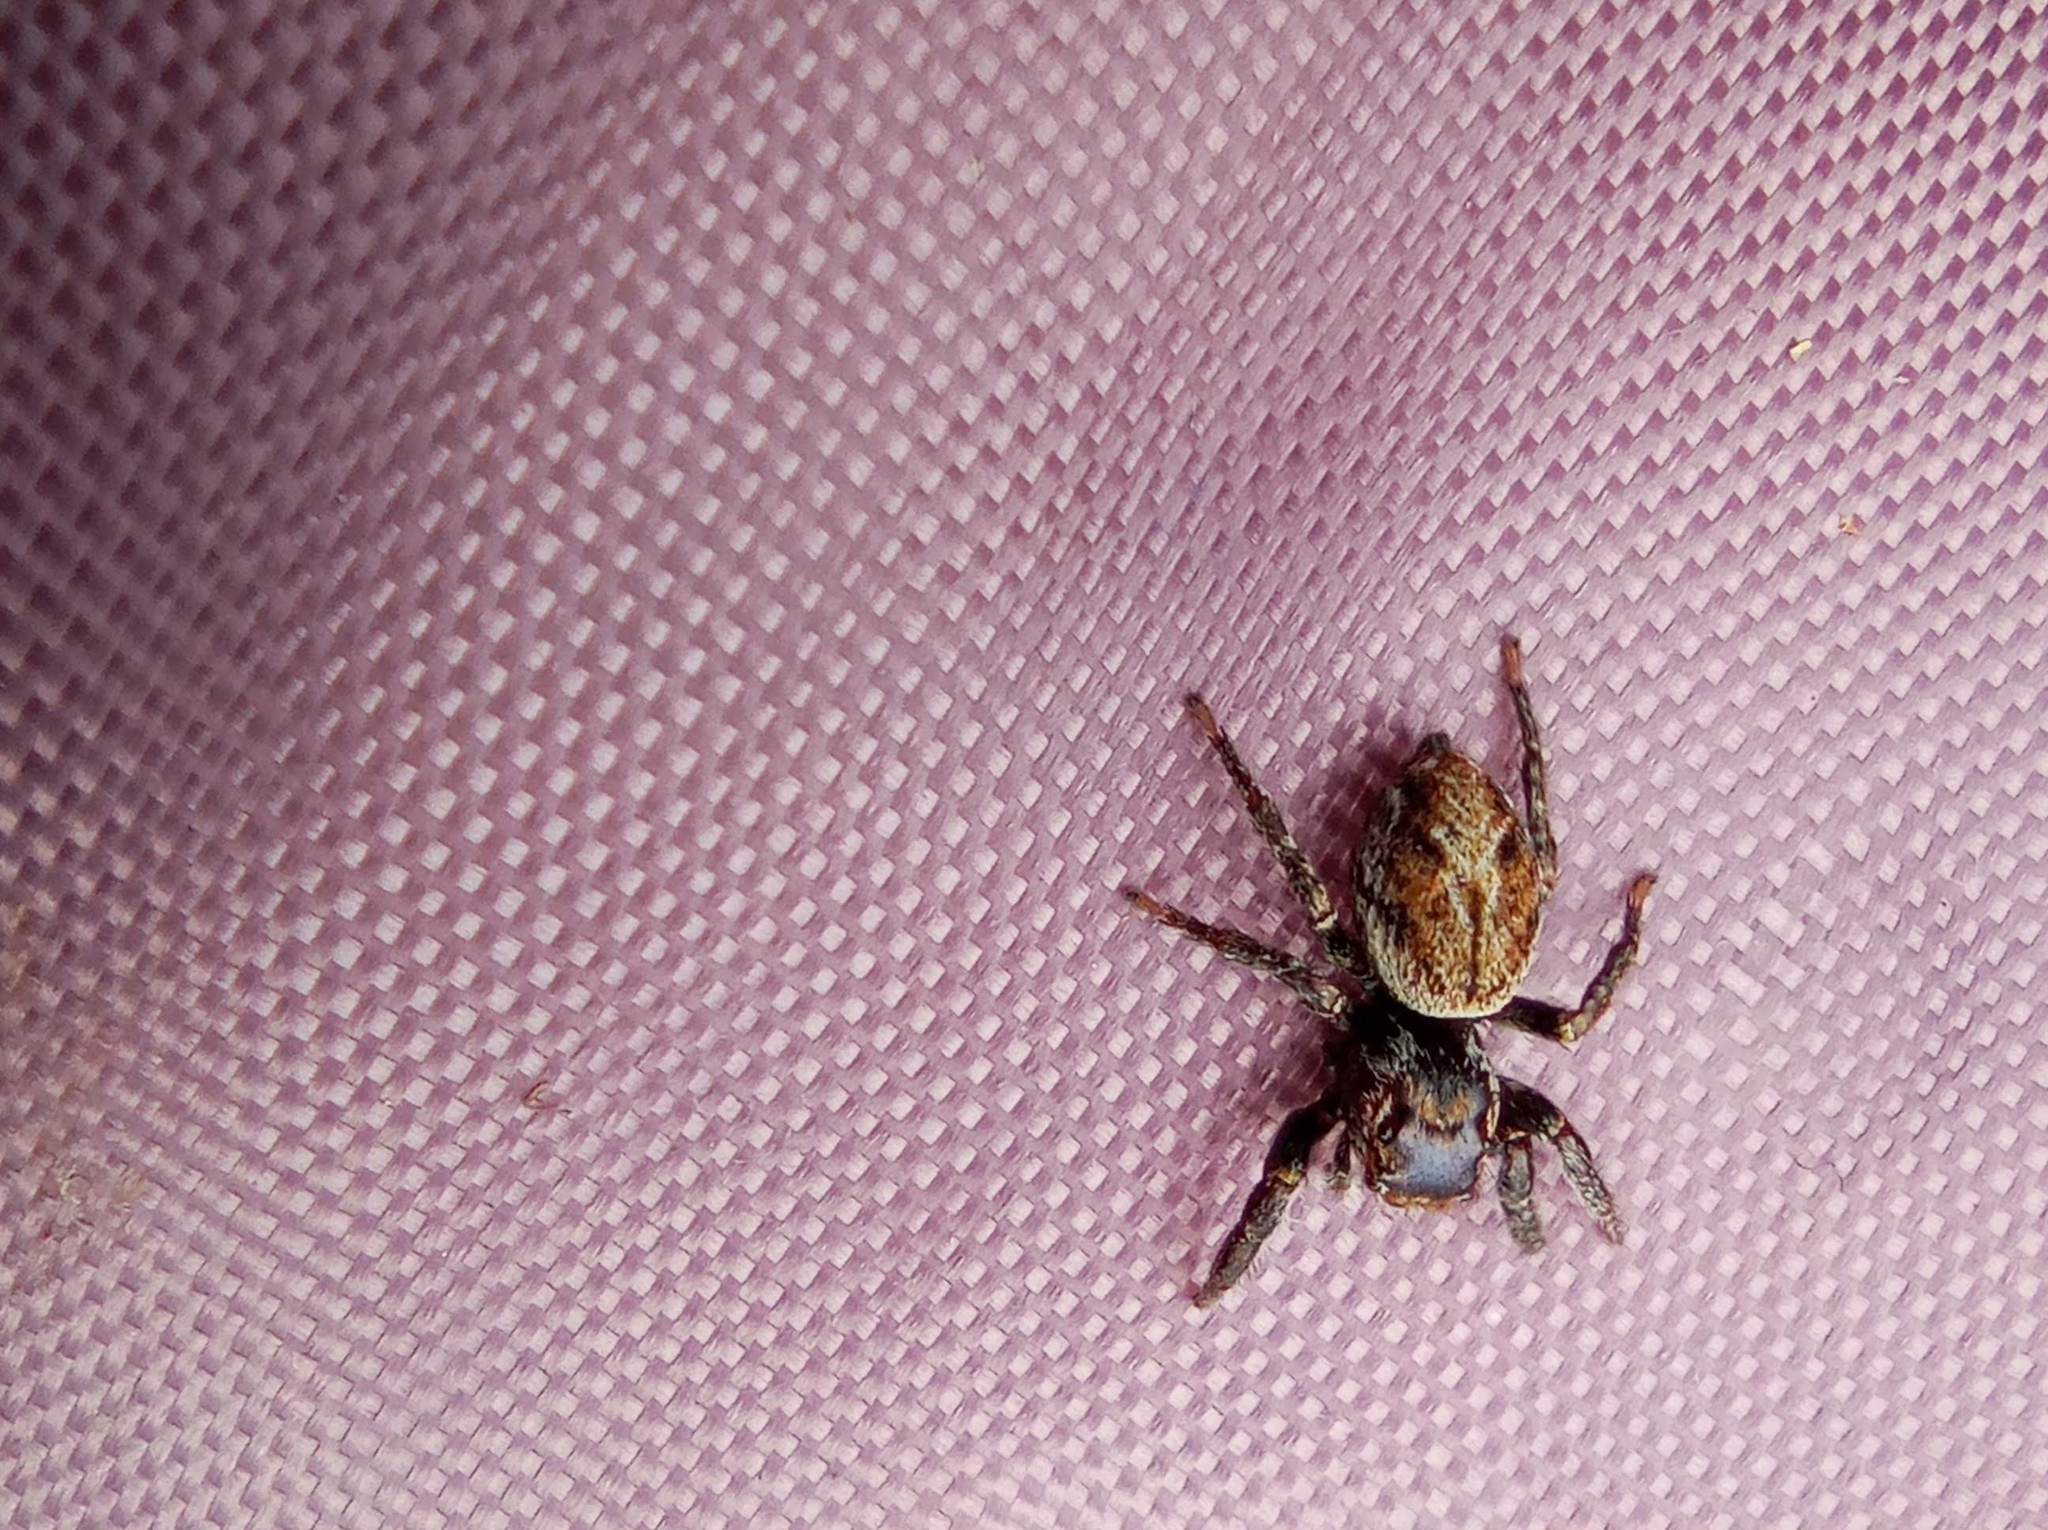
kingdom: Animalia
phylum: Arthropoda
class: Arachnida
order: Araneae
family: Salticidae
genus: Evarcha
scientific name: Evarcha falcata
